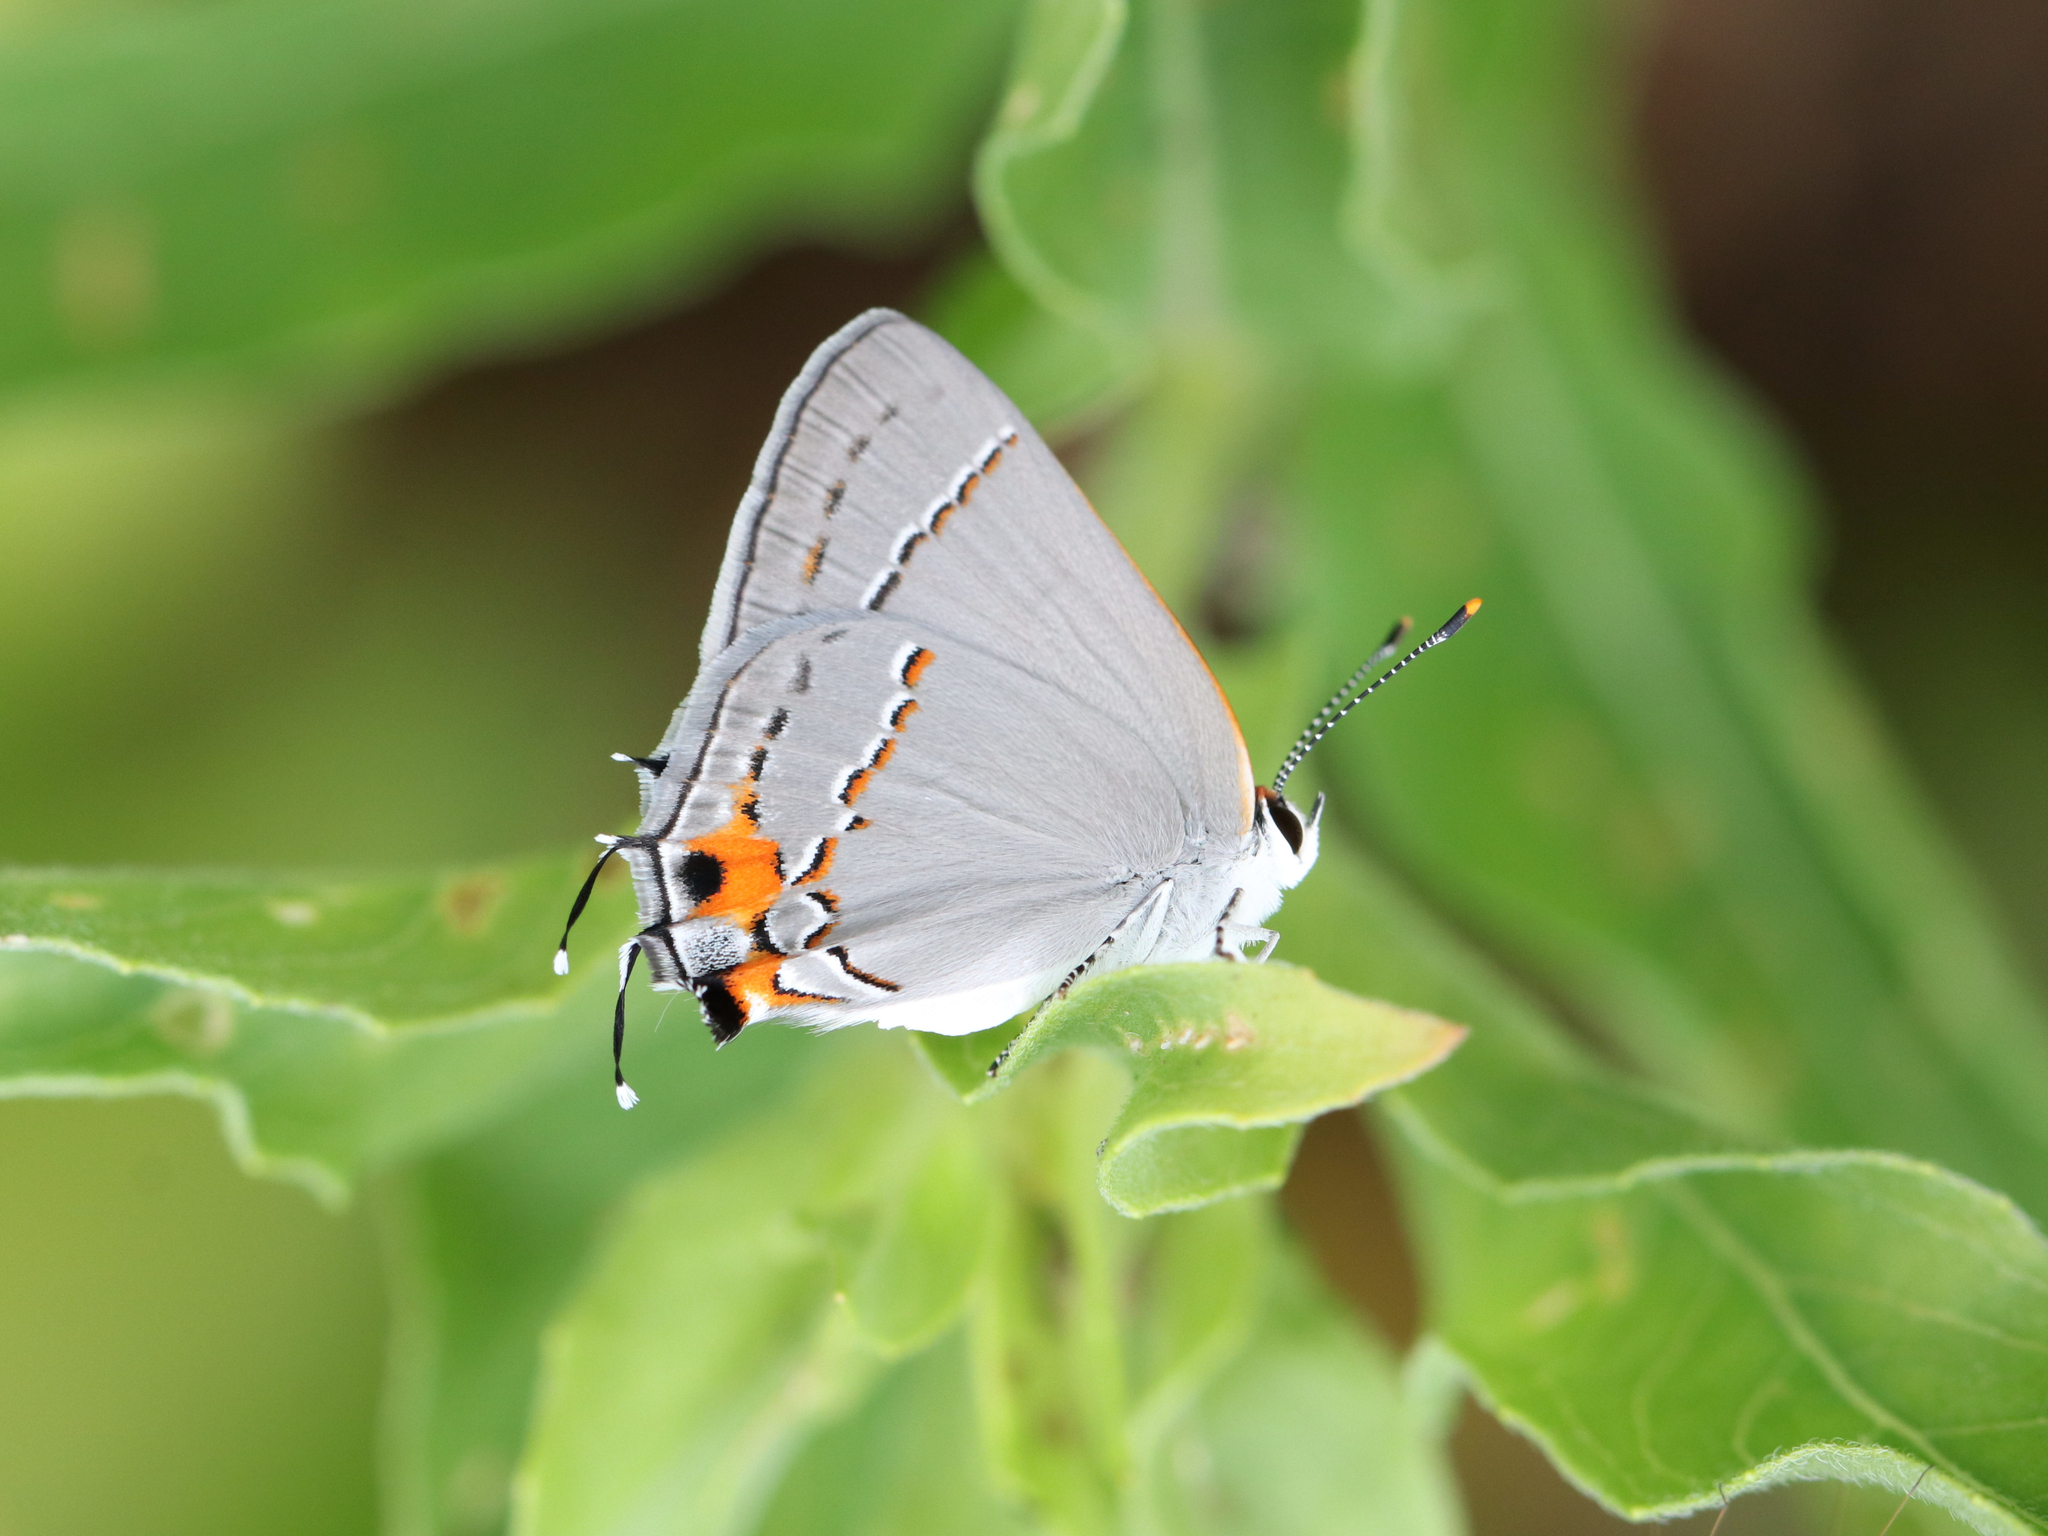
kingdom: Animalia
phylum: Arthropoda
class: Insecta
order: Lepidoptera
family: Lycaenidae
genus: Strymon
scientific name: Strymon melinus
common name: Gray hairstreak
